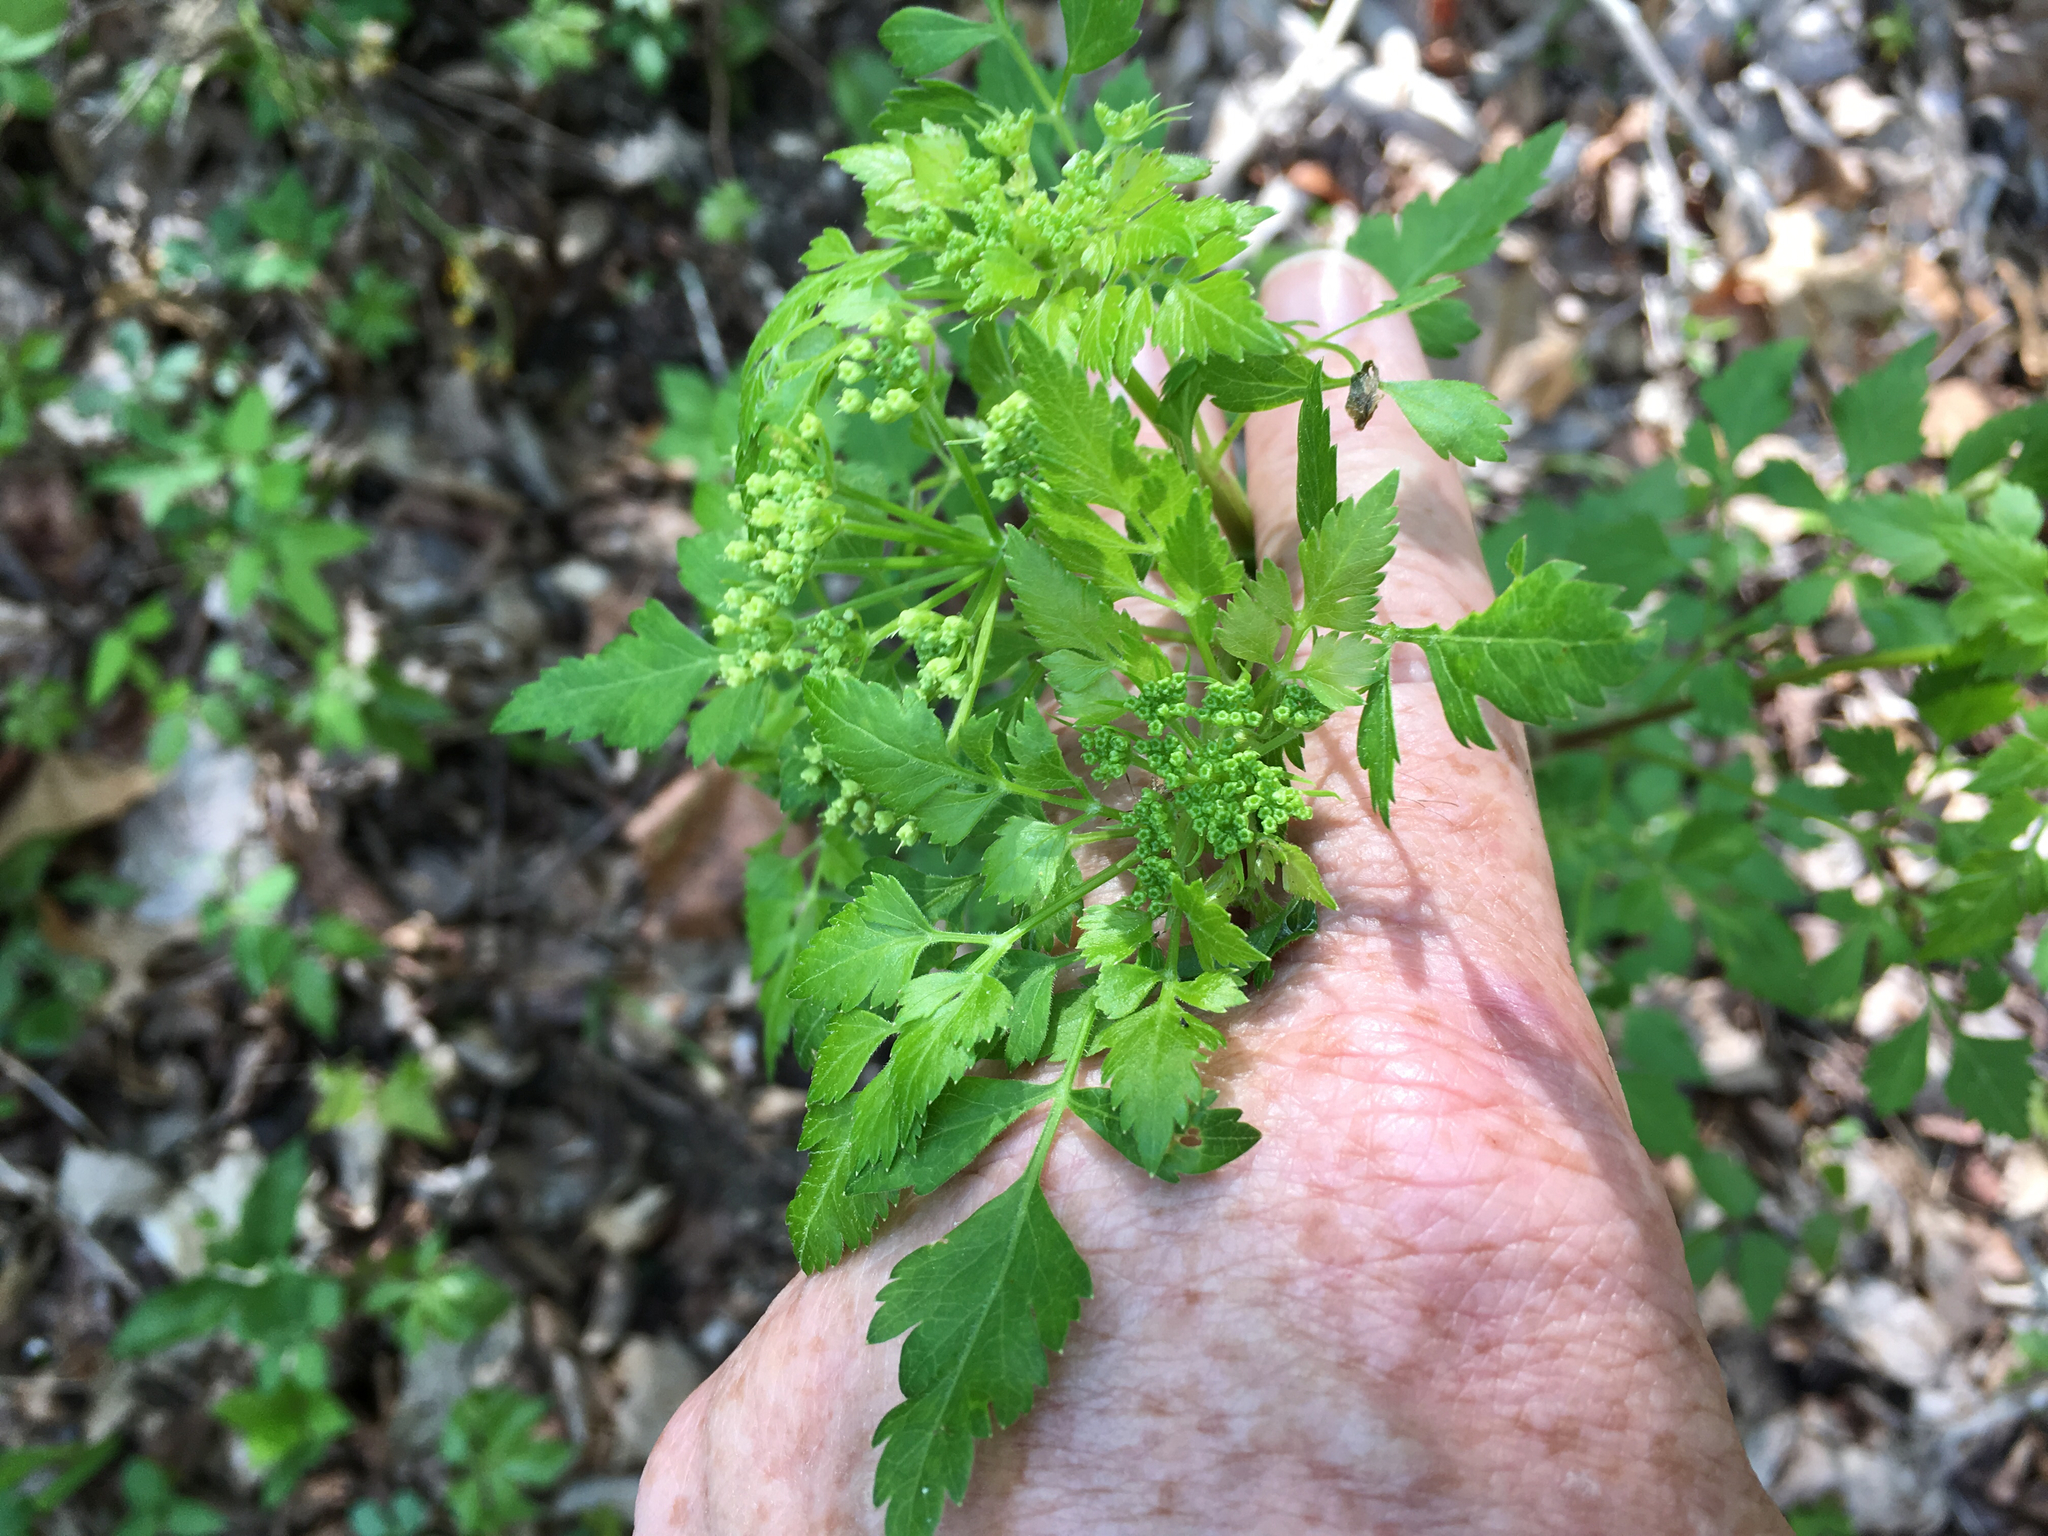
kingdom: Plantae
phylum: Tracheophyta
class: Magnoliopsida
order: Apiales
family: Apiaceae
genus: Thaspium
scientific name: Thaspium barbinode
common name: Bearded meadow-parsnip
